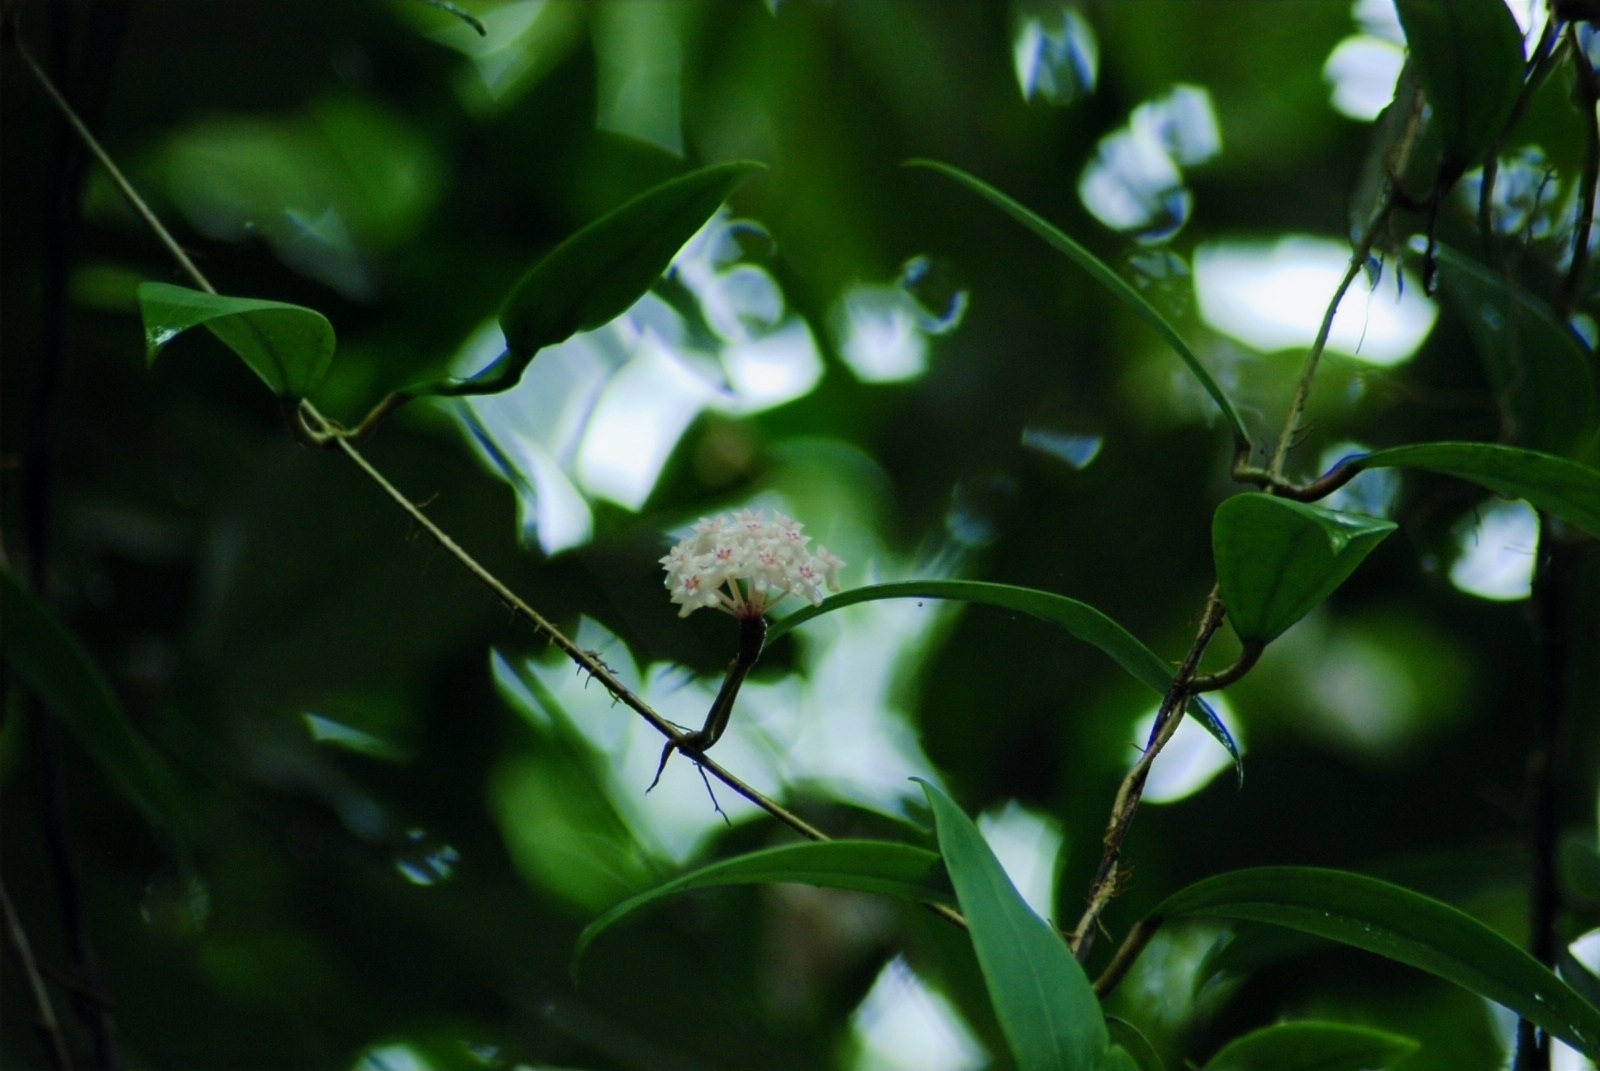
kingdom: Plantae
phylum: Tracheophyta
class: Magnoliopsida
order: Gentianales
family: Apocynaceae
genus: Hoya
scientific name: Hoya verticillata
